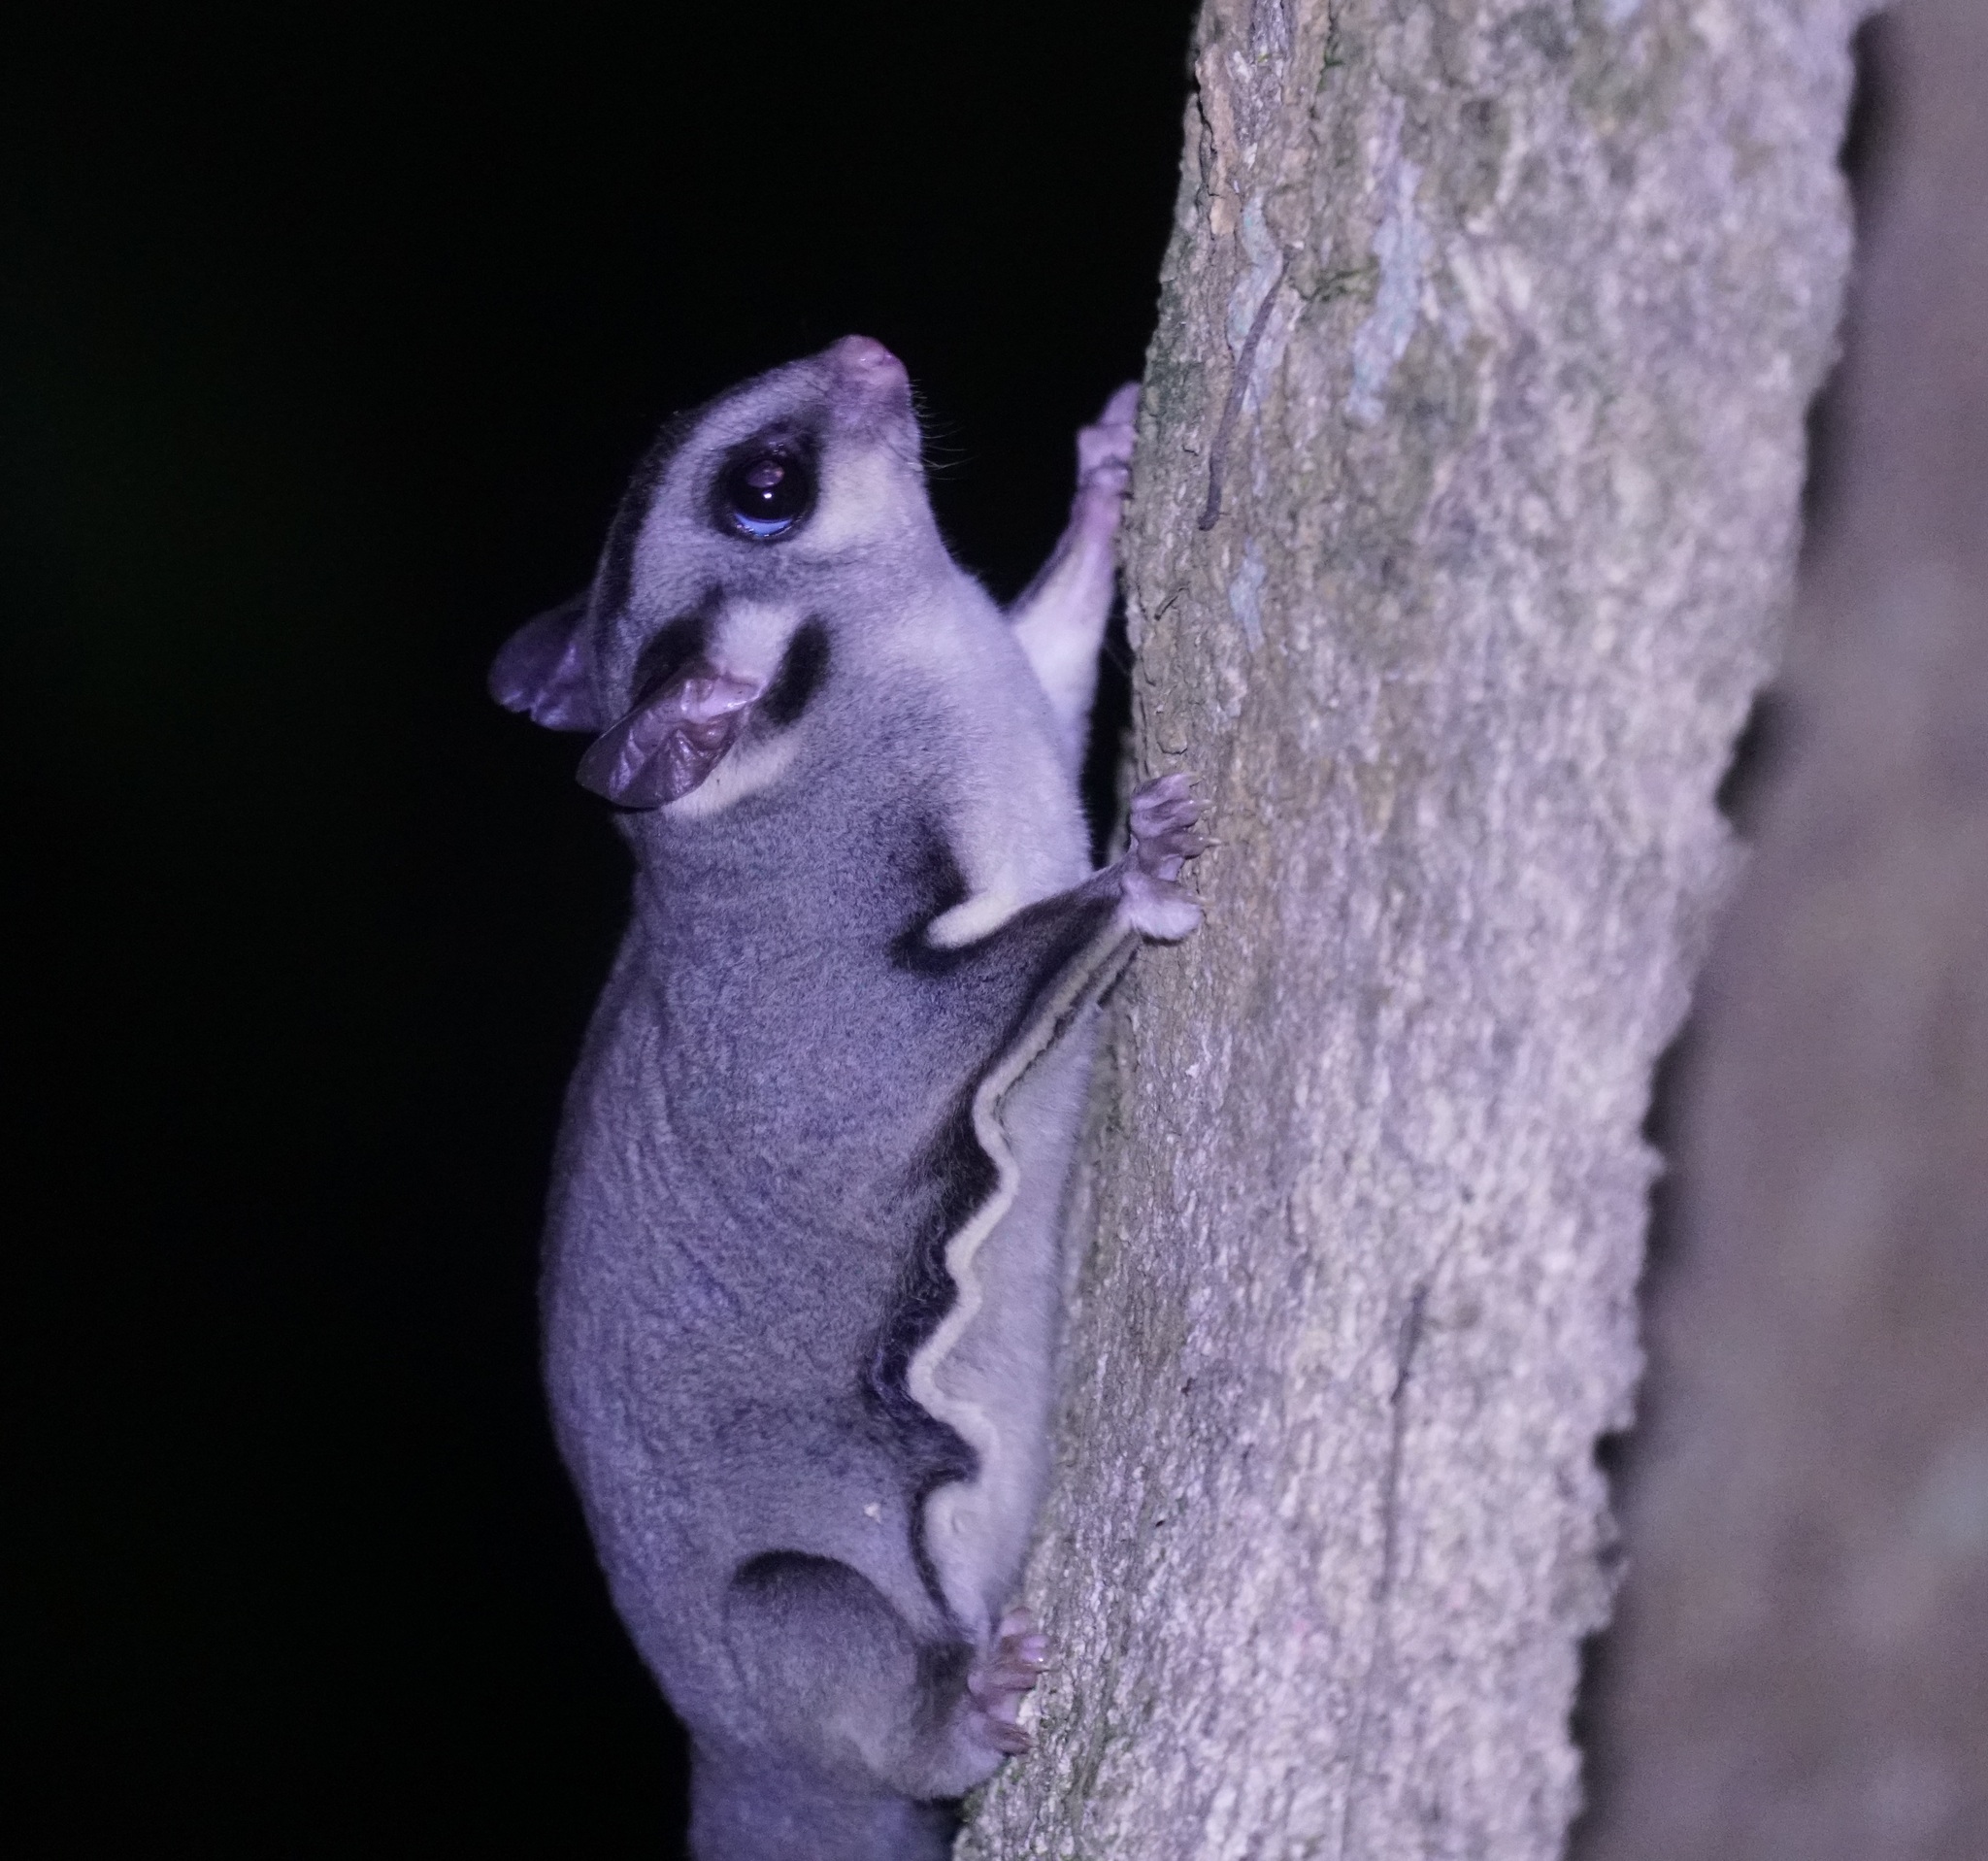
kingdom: Animalia
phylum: Chordata
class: Mammalia
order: Diprotodontia
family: Petauridae
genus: Petaurus
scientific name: Petaurus breviceps
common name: Sugar glider
